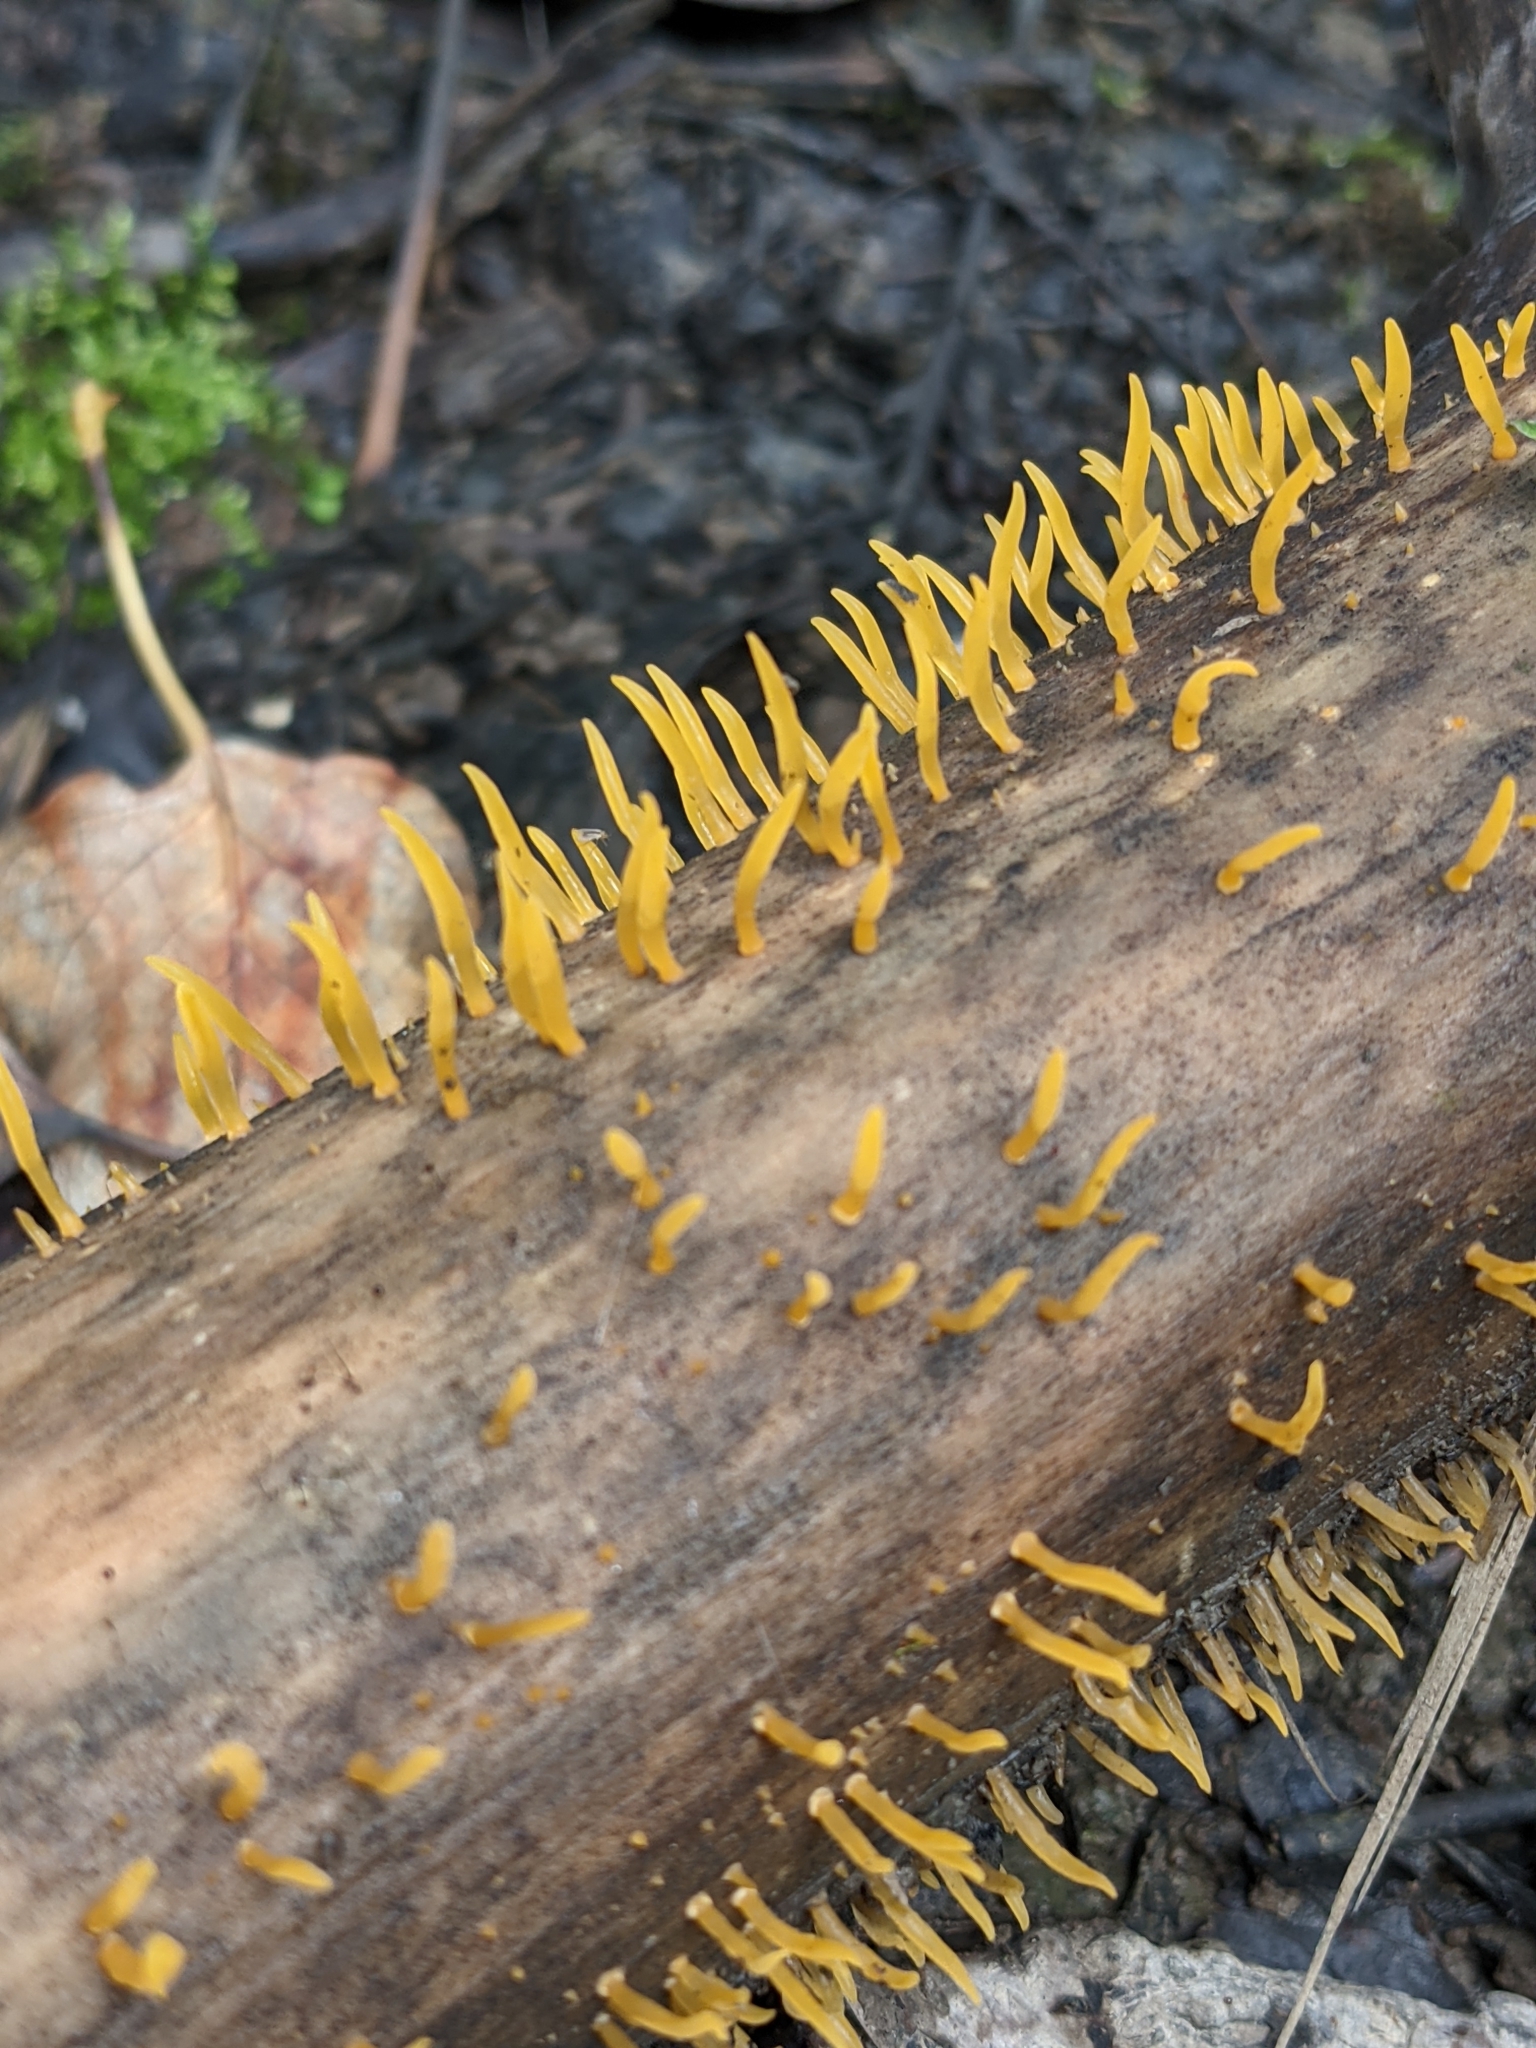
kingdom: Fungi
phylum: Basidiomycota
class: Dacrymycetes
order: Dacrymycetales
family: Dacrymycetaceae
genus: Calocera
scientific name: Calocera cornea
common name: Small stagshorn
